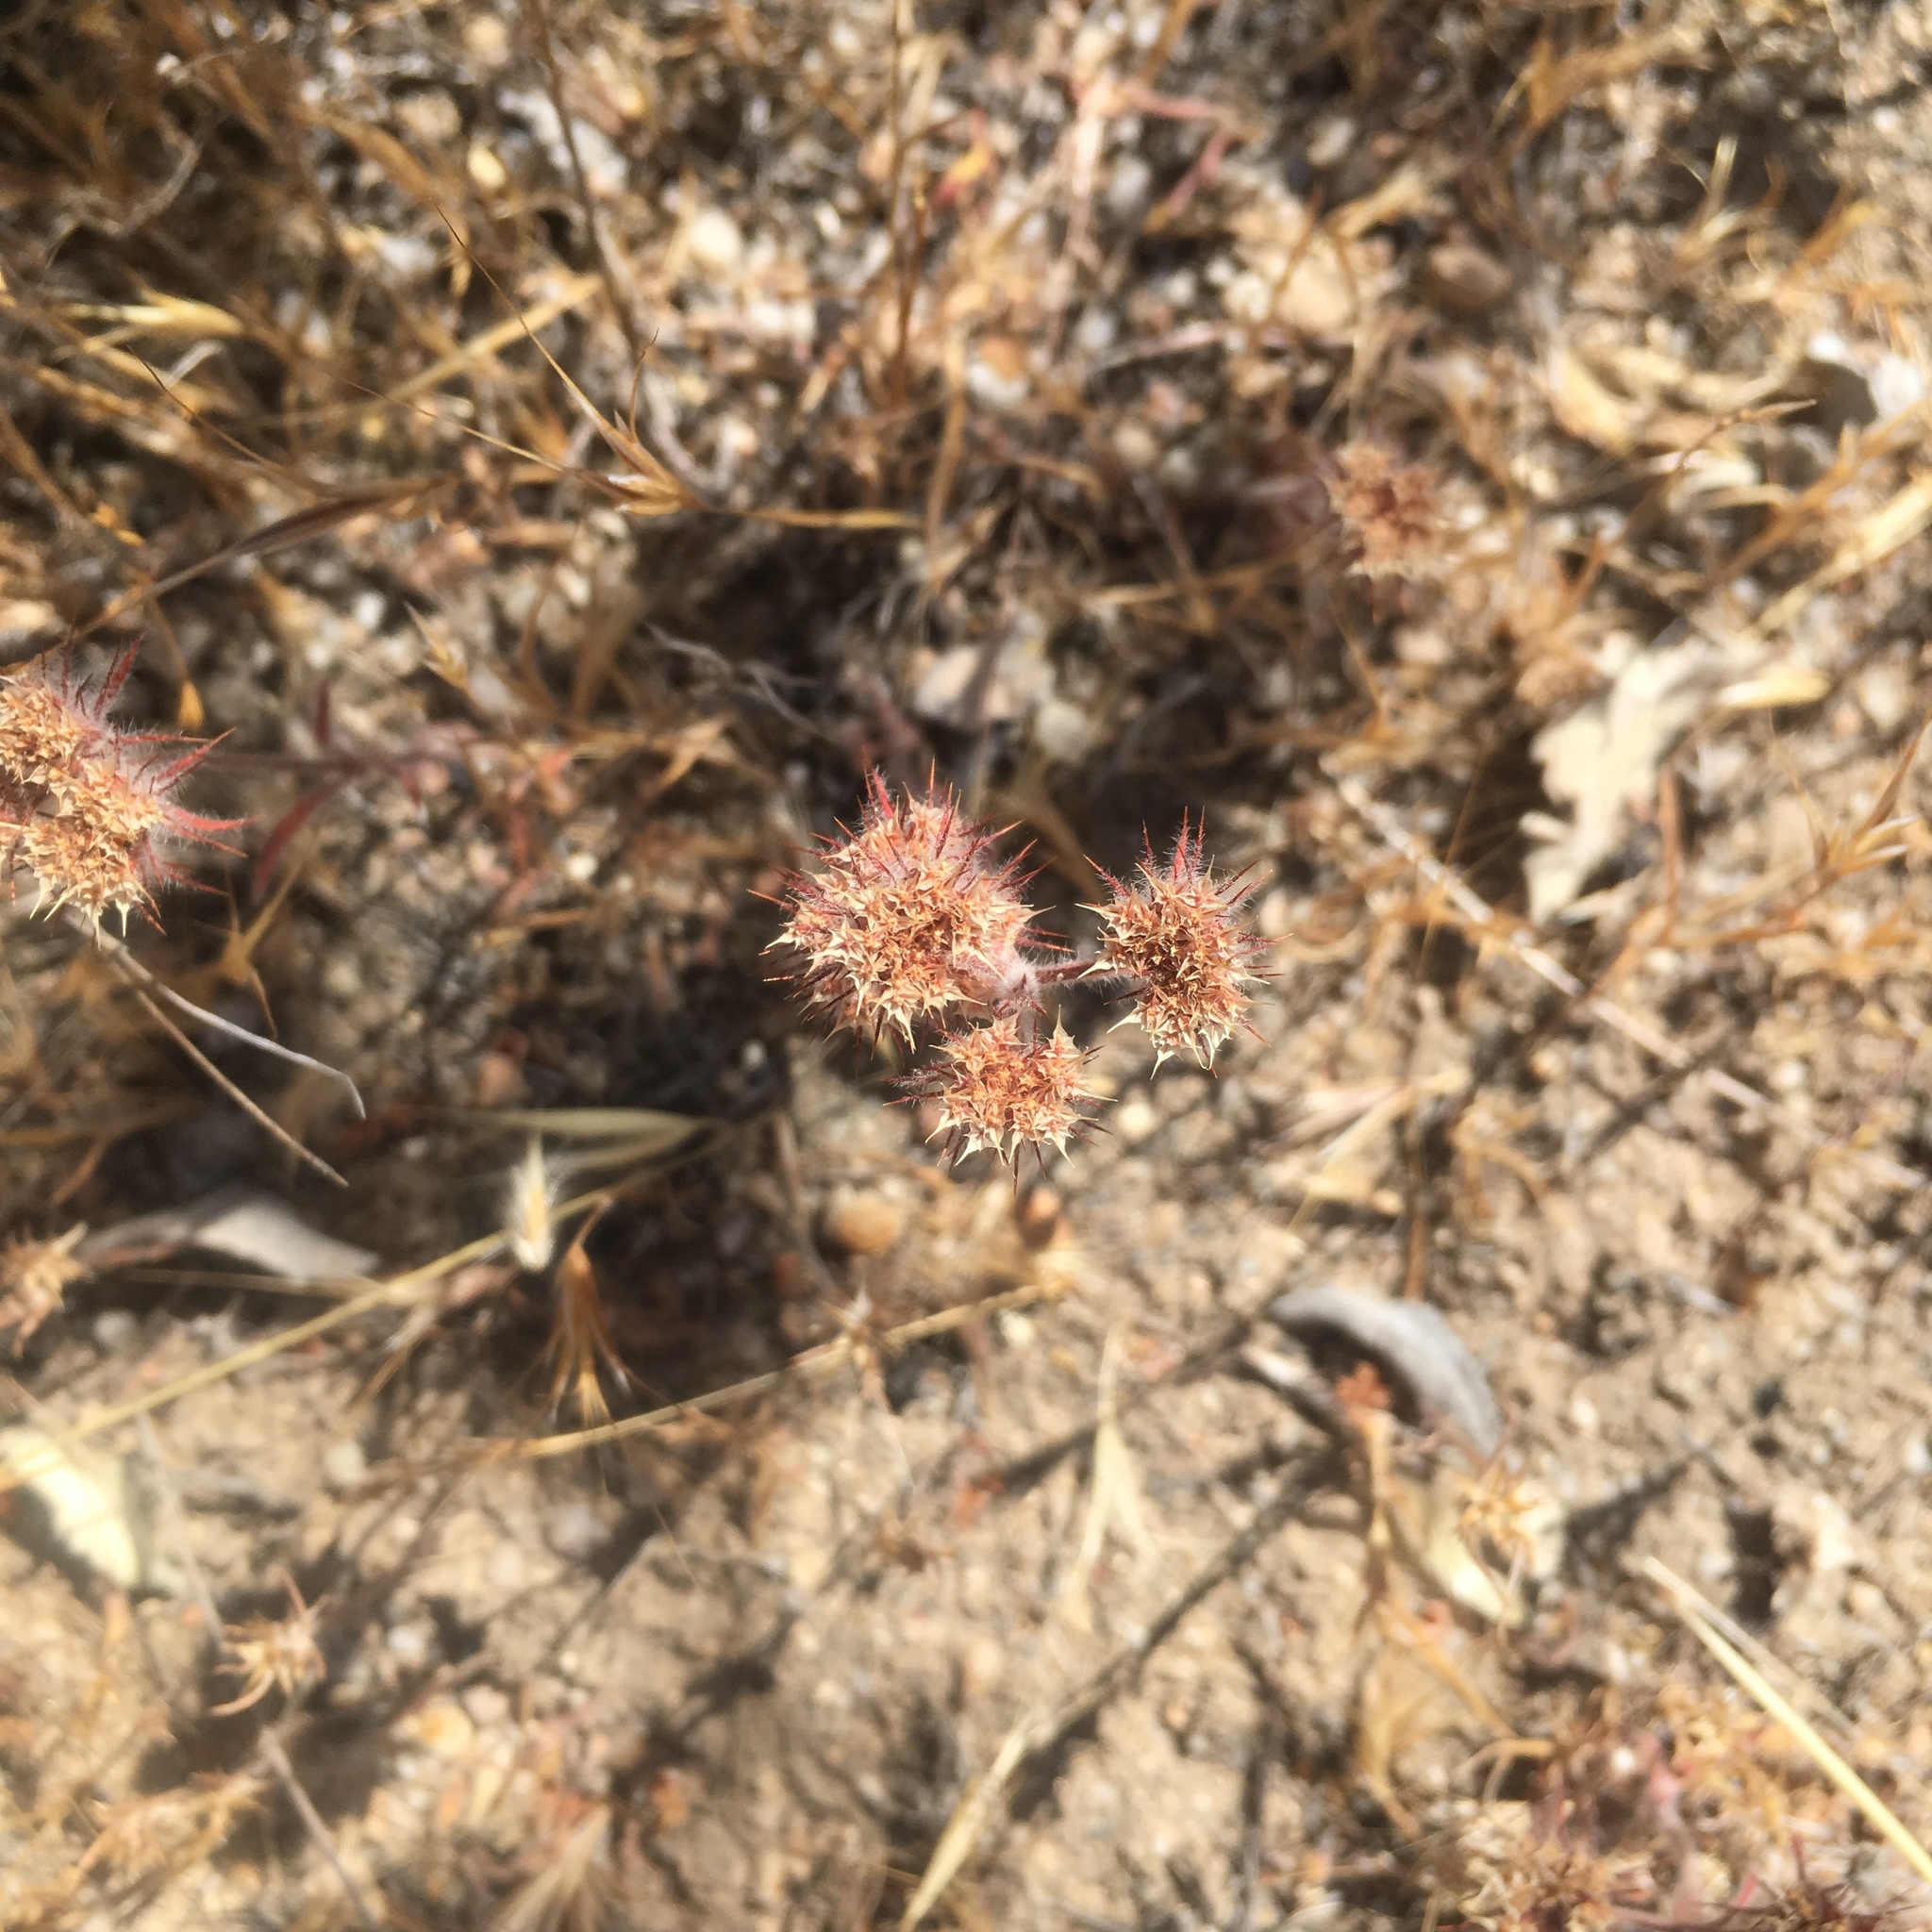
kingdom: Plantae
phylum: Tracheophyta
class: Magnoliopsida
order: Caryophyllales
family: Polygonaceae
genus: Chorizanthe
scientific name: Chorizanthe douglasii
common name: Douglas's spineflower
